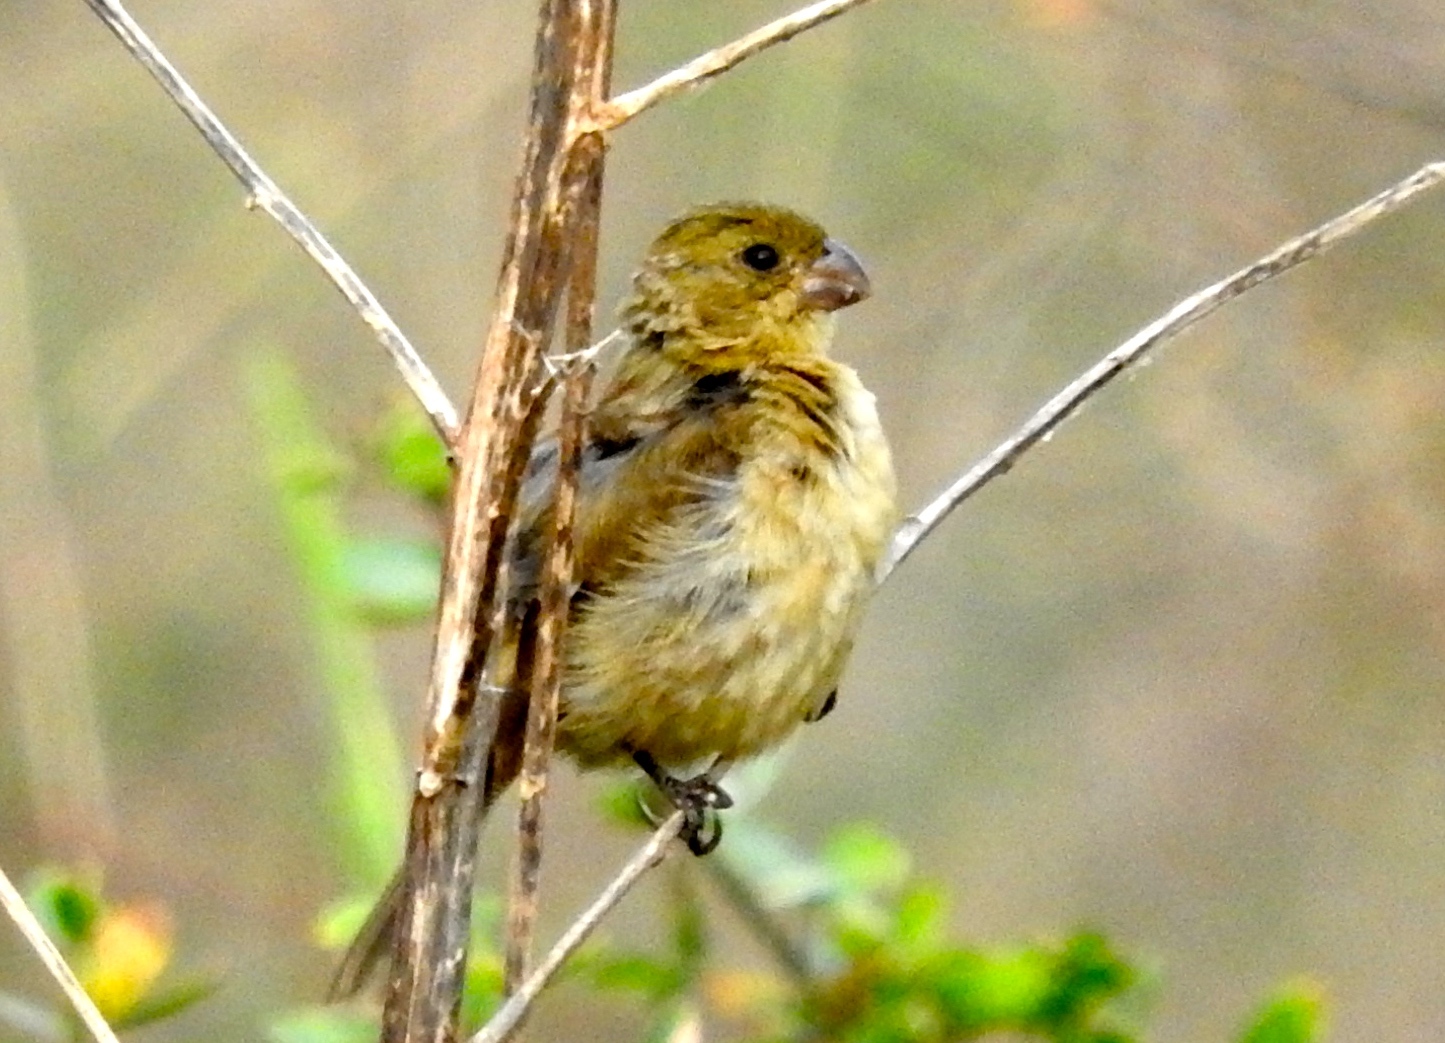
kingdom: Animalia
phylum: Chordata
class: Aves
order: Passeriformes
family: Thraupidae
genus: Sporophila
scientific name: Sporophila torqueola
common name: White-collared seedeater
